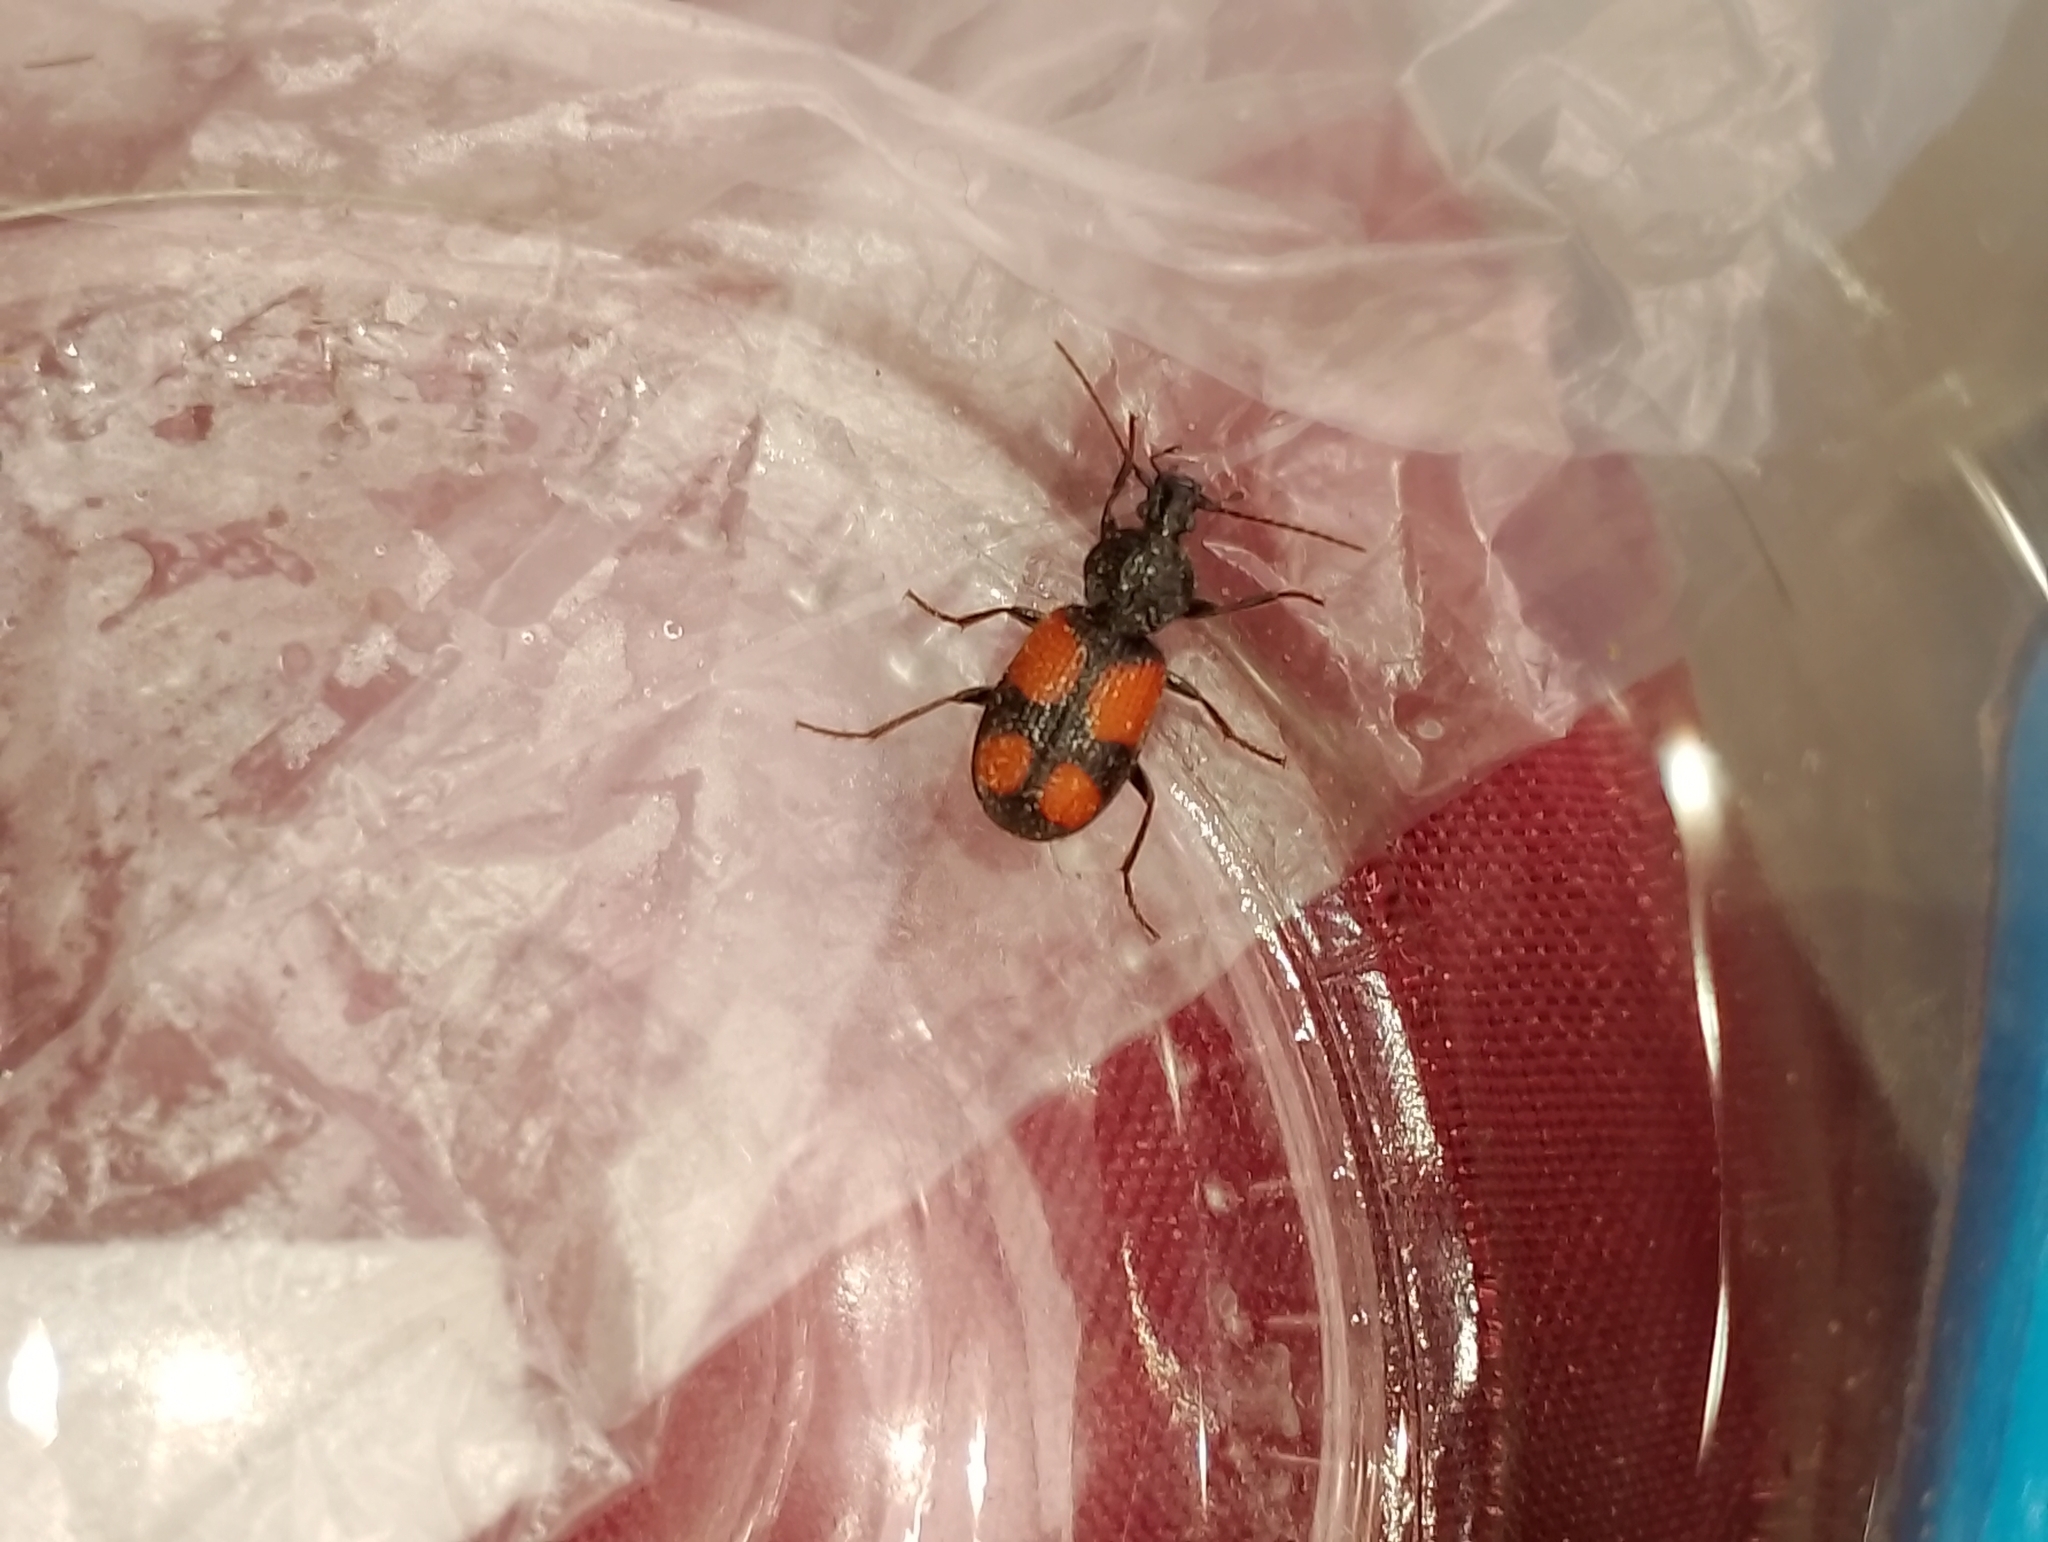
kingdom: Animalia
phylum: Arthropoda
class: Insecta
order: Coleoptera
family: Carabidae
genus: Panagaeus
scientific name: Panagaeus bipustulatus
